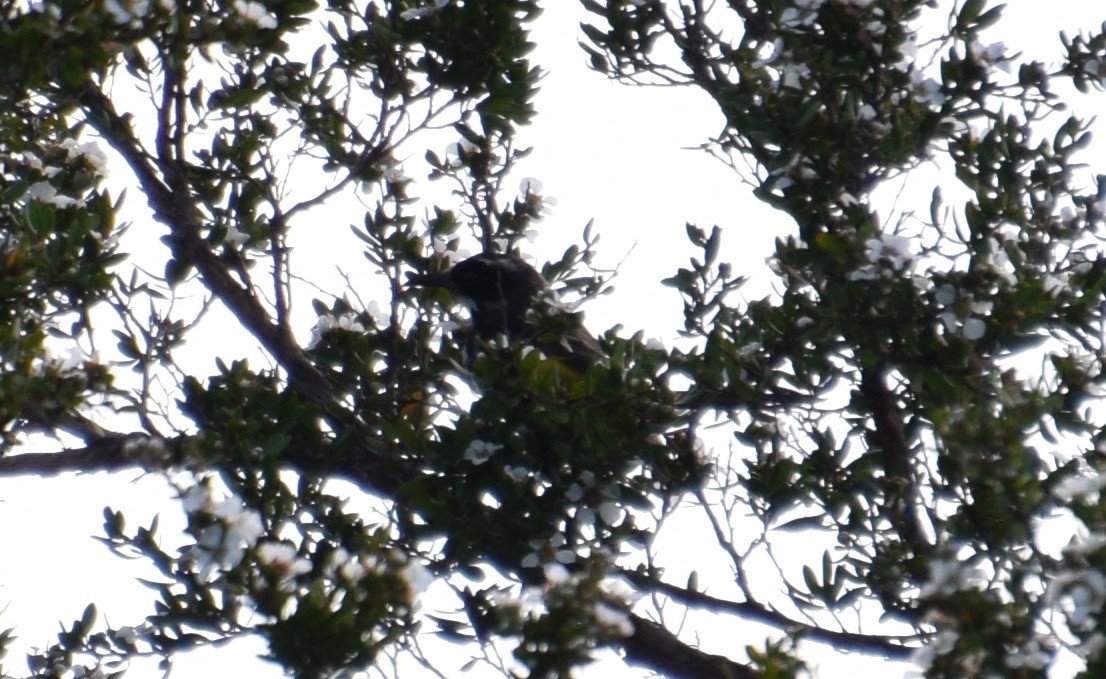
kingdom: Animalia
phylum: Chordata
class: Aves
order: Passeriformes
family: Meliphagidae
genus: Phylidonyris
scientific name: Phylidonyris novaehollandiae
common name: New holland honeyeater
